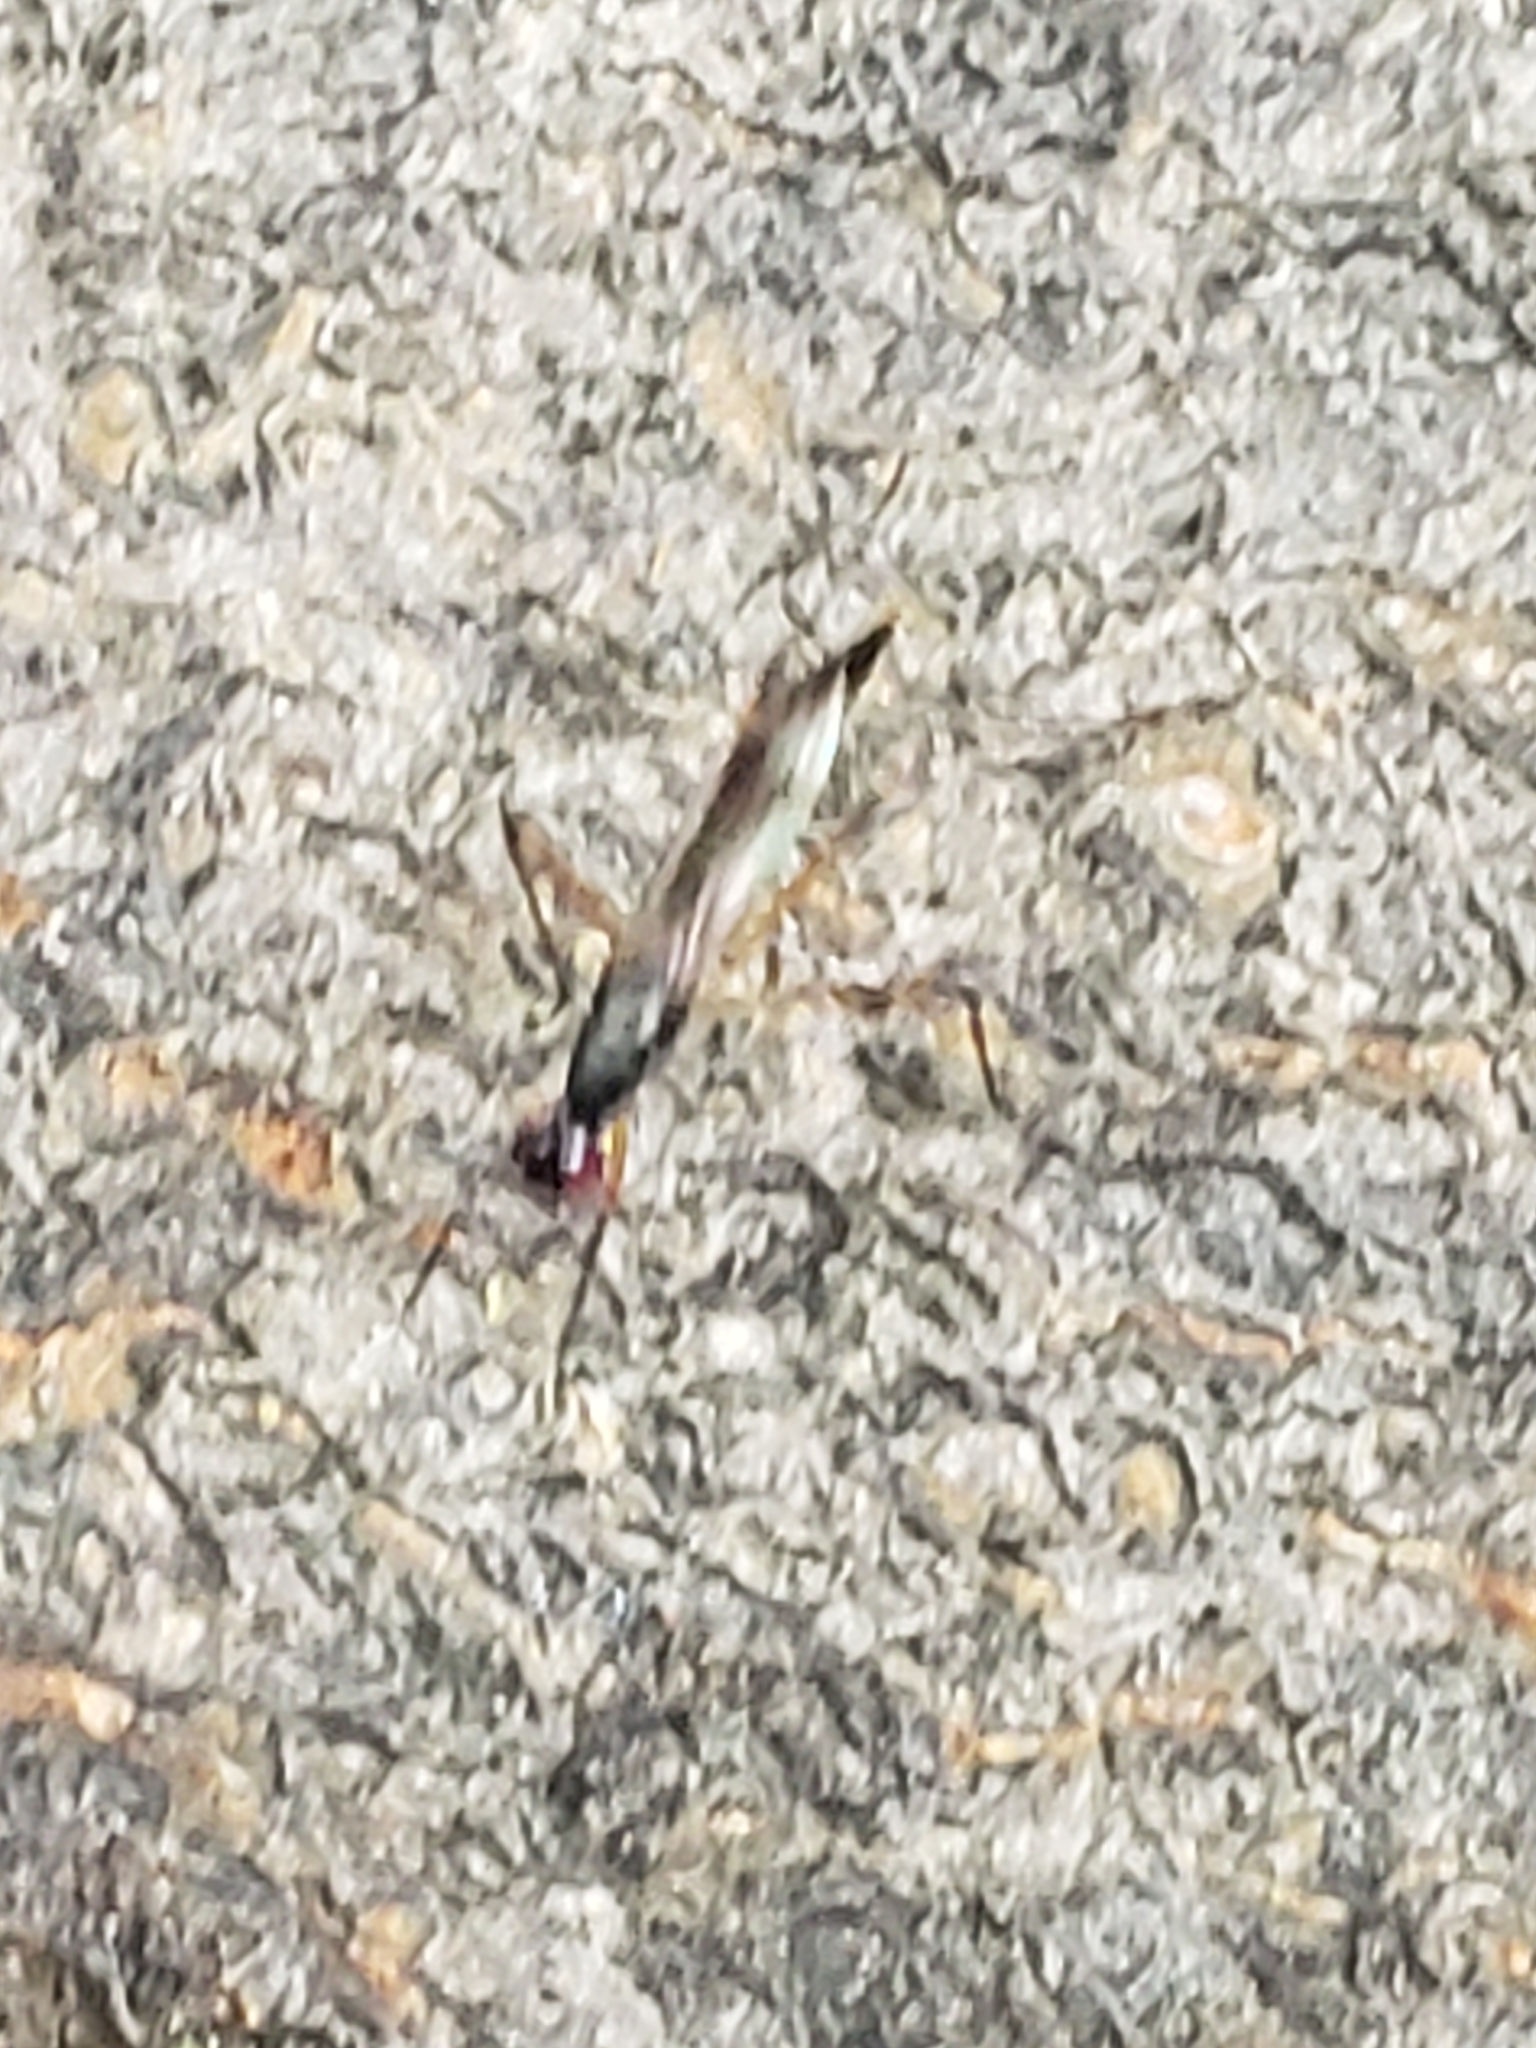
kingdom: Animalia
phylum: Arthropoda
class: Insecta
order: Diptera
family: Micropezidae
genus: Rainieria
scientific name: Rainieria antennaepes
